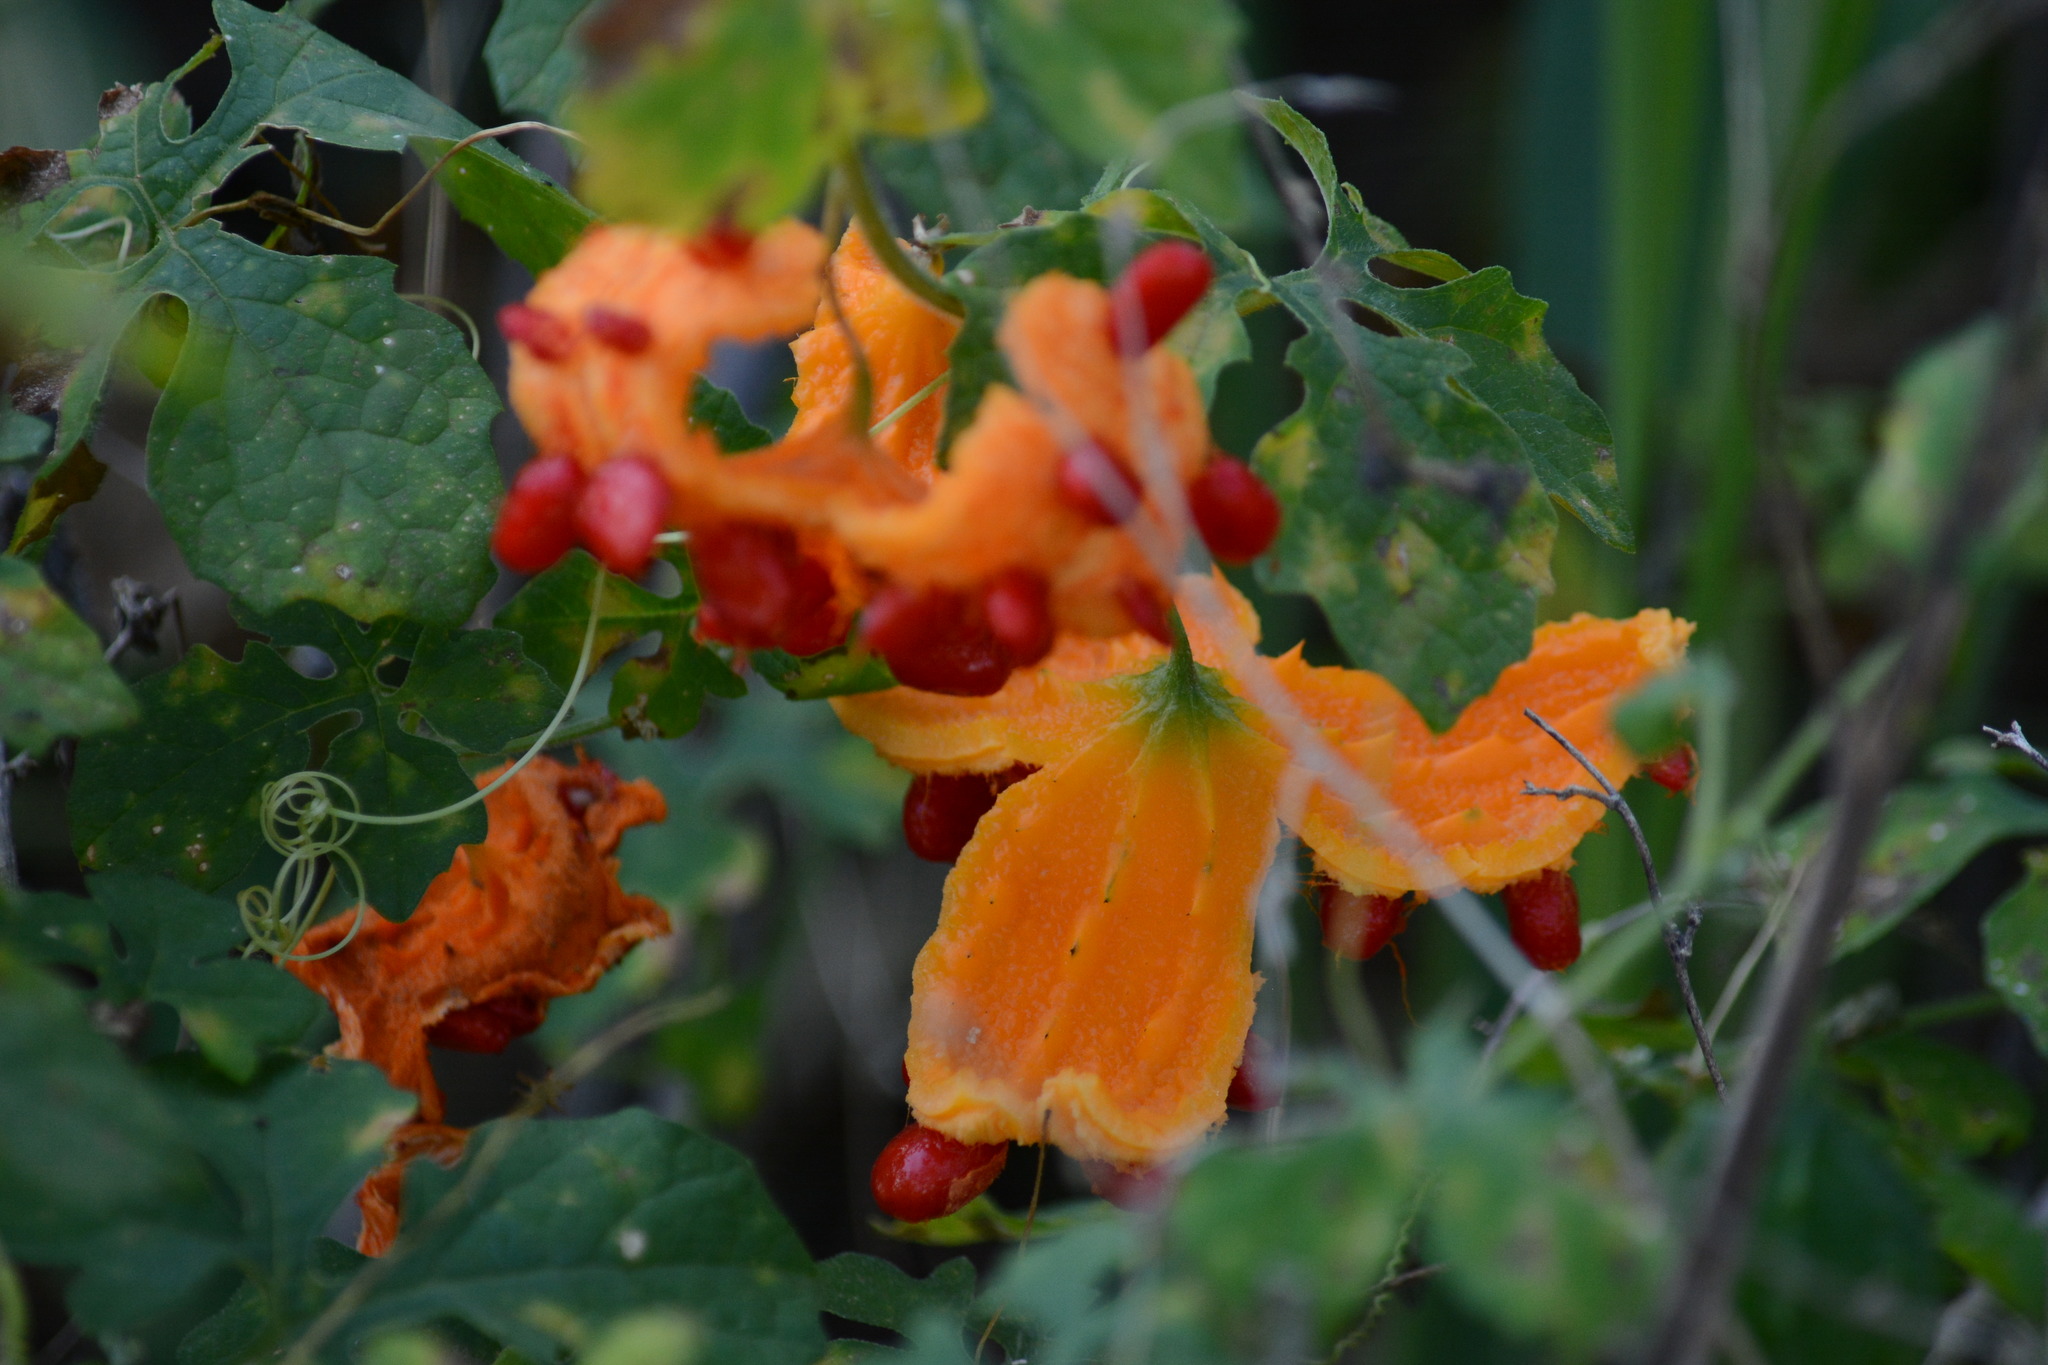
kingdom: Plantae
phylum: Tracheophyta
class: Magnoliopsida
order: Cucurbitales
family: Cucurbitaceae
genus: Momordica
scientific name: Momordica charantia
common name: Balsampear
